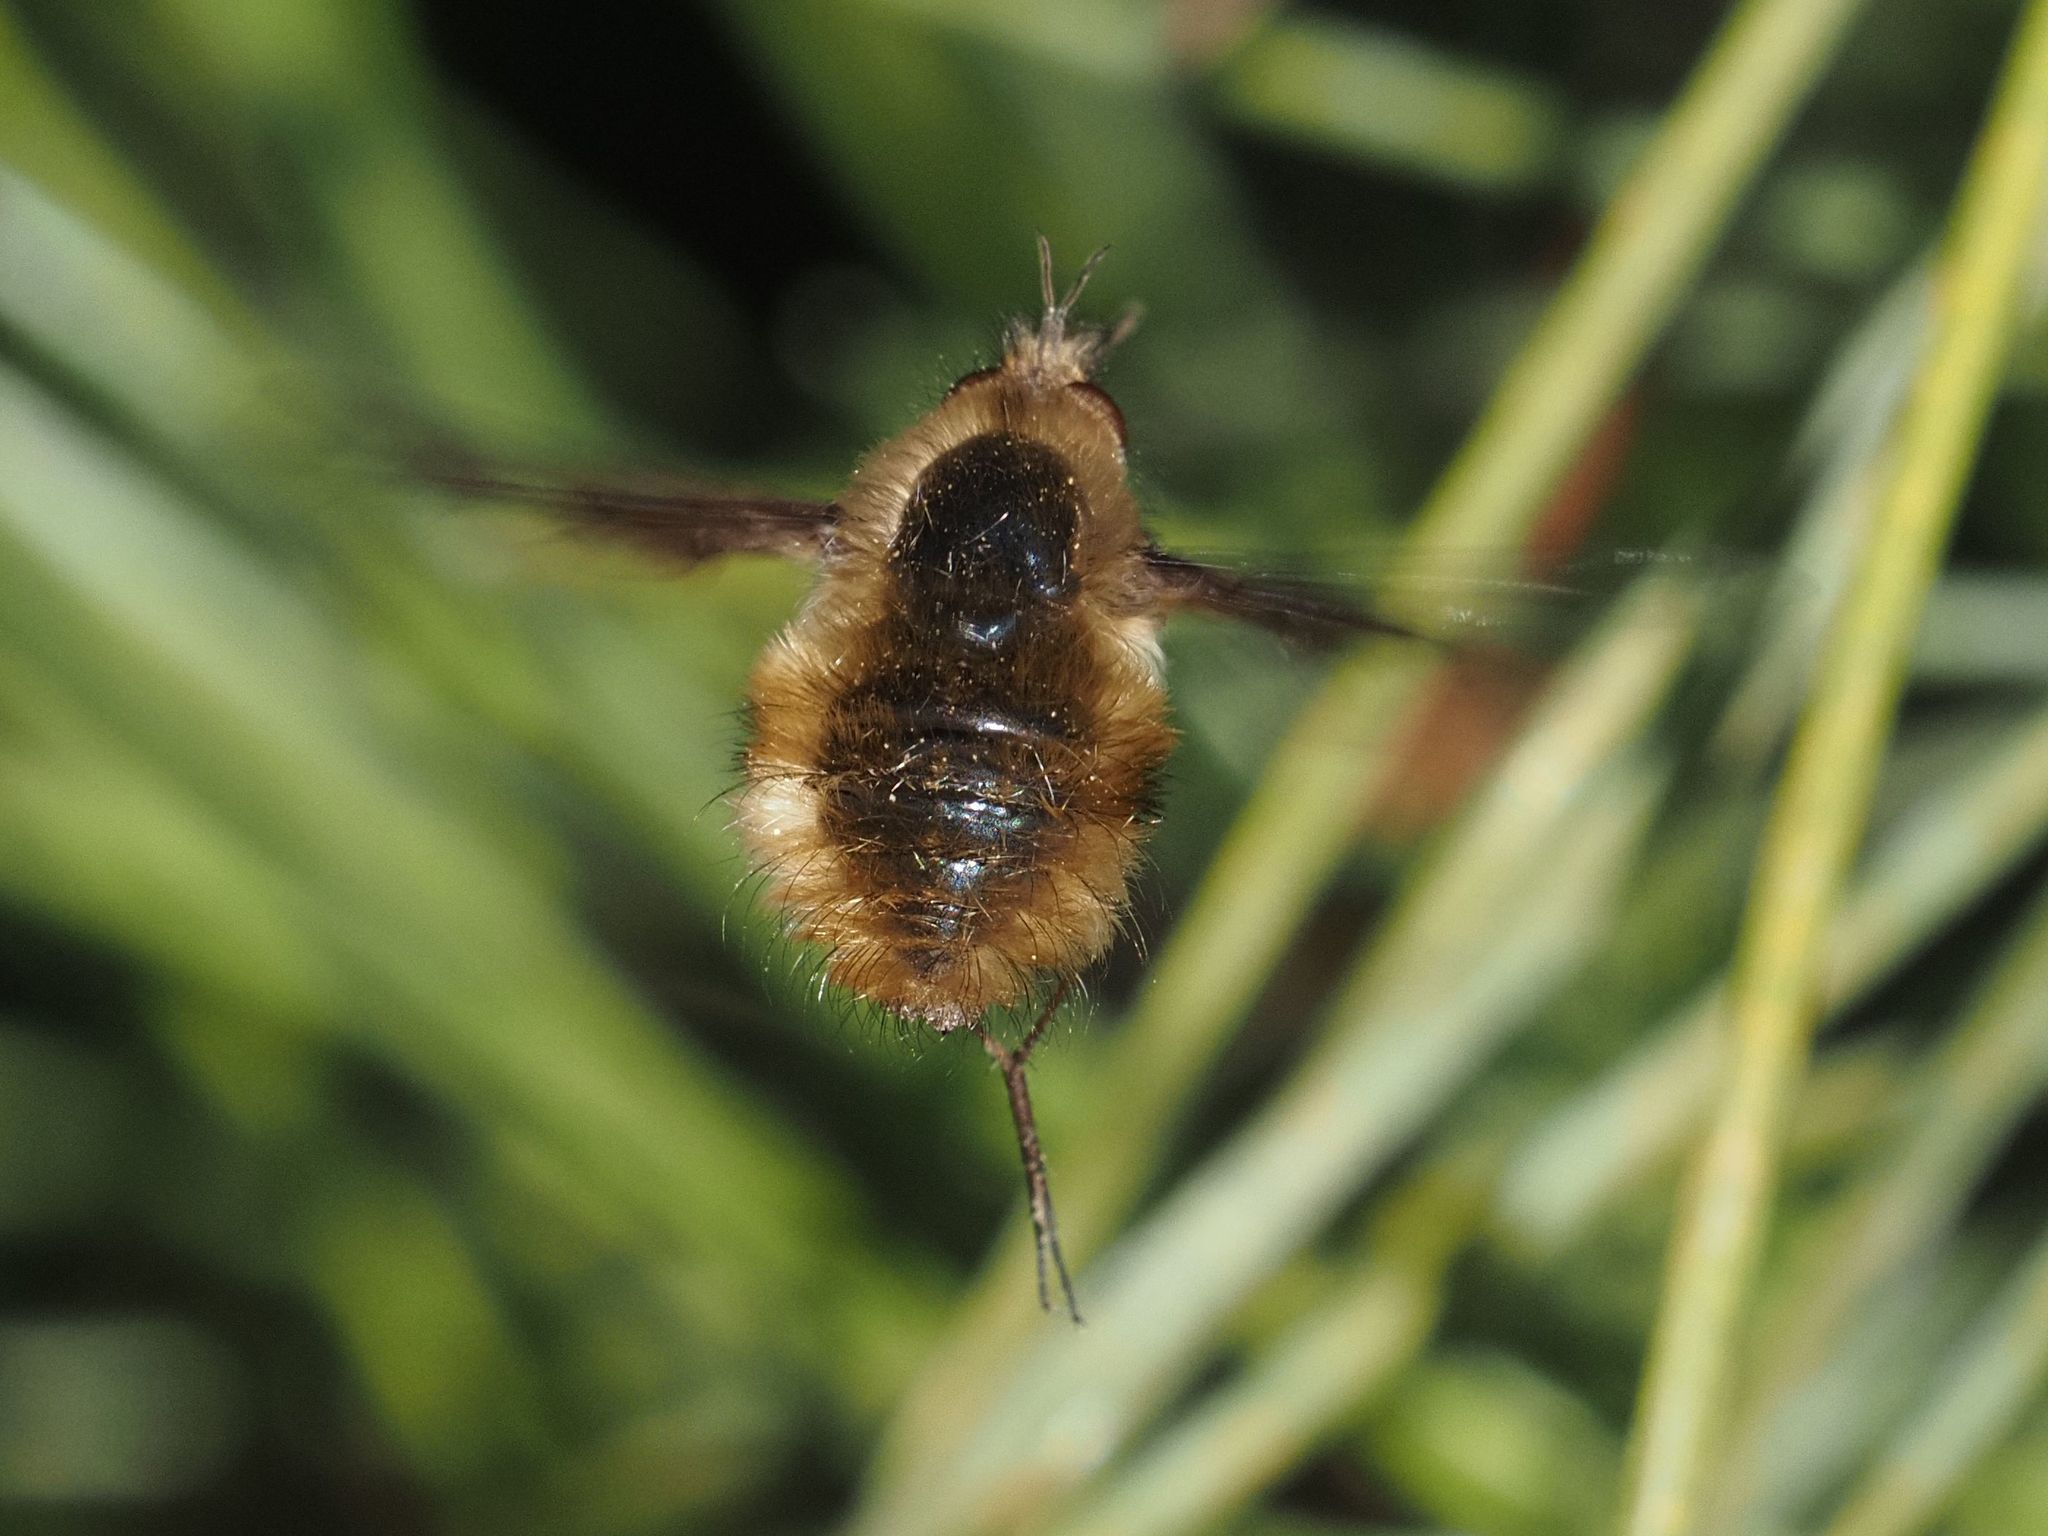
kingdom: Animalia
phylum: Arthropoda
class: Insecta
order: Diptera
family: Bombyliidae
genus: Bombylius
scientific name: Bombylius major
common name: Bee fly
